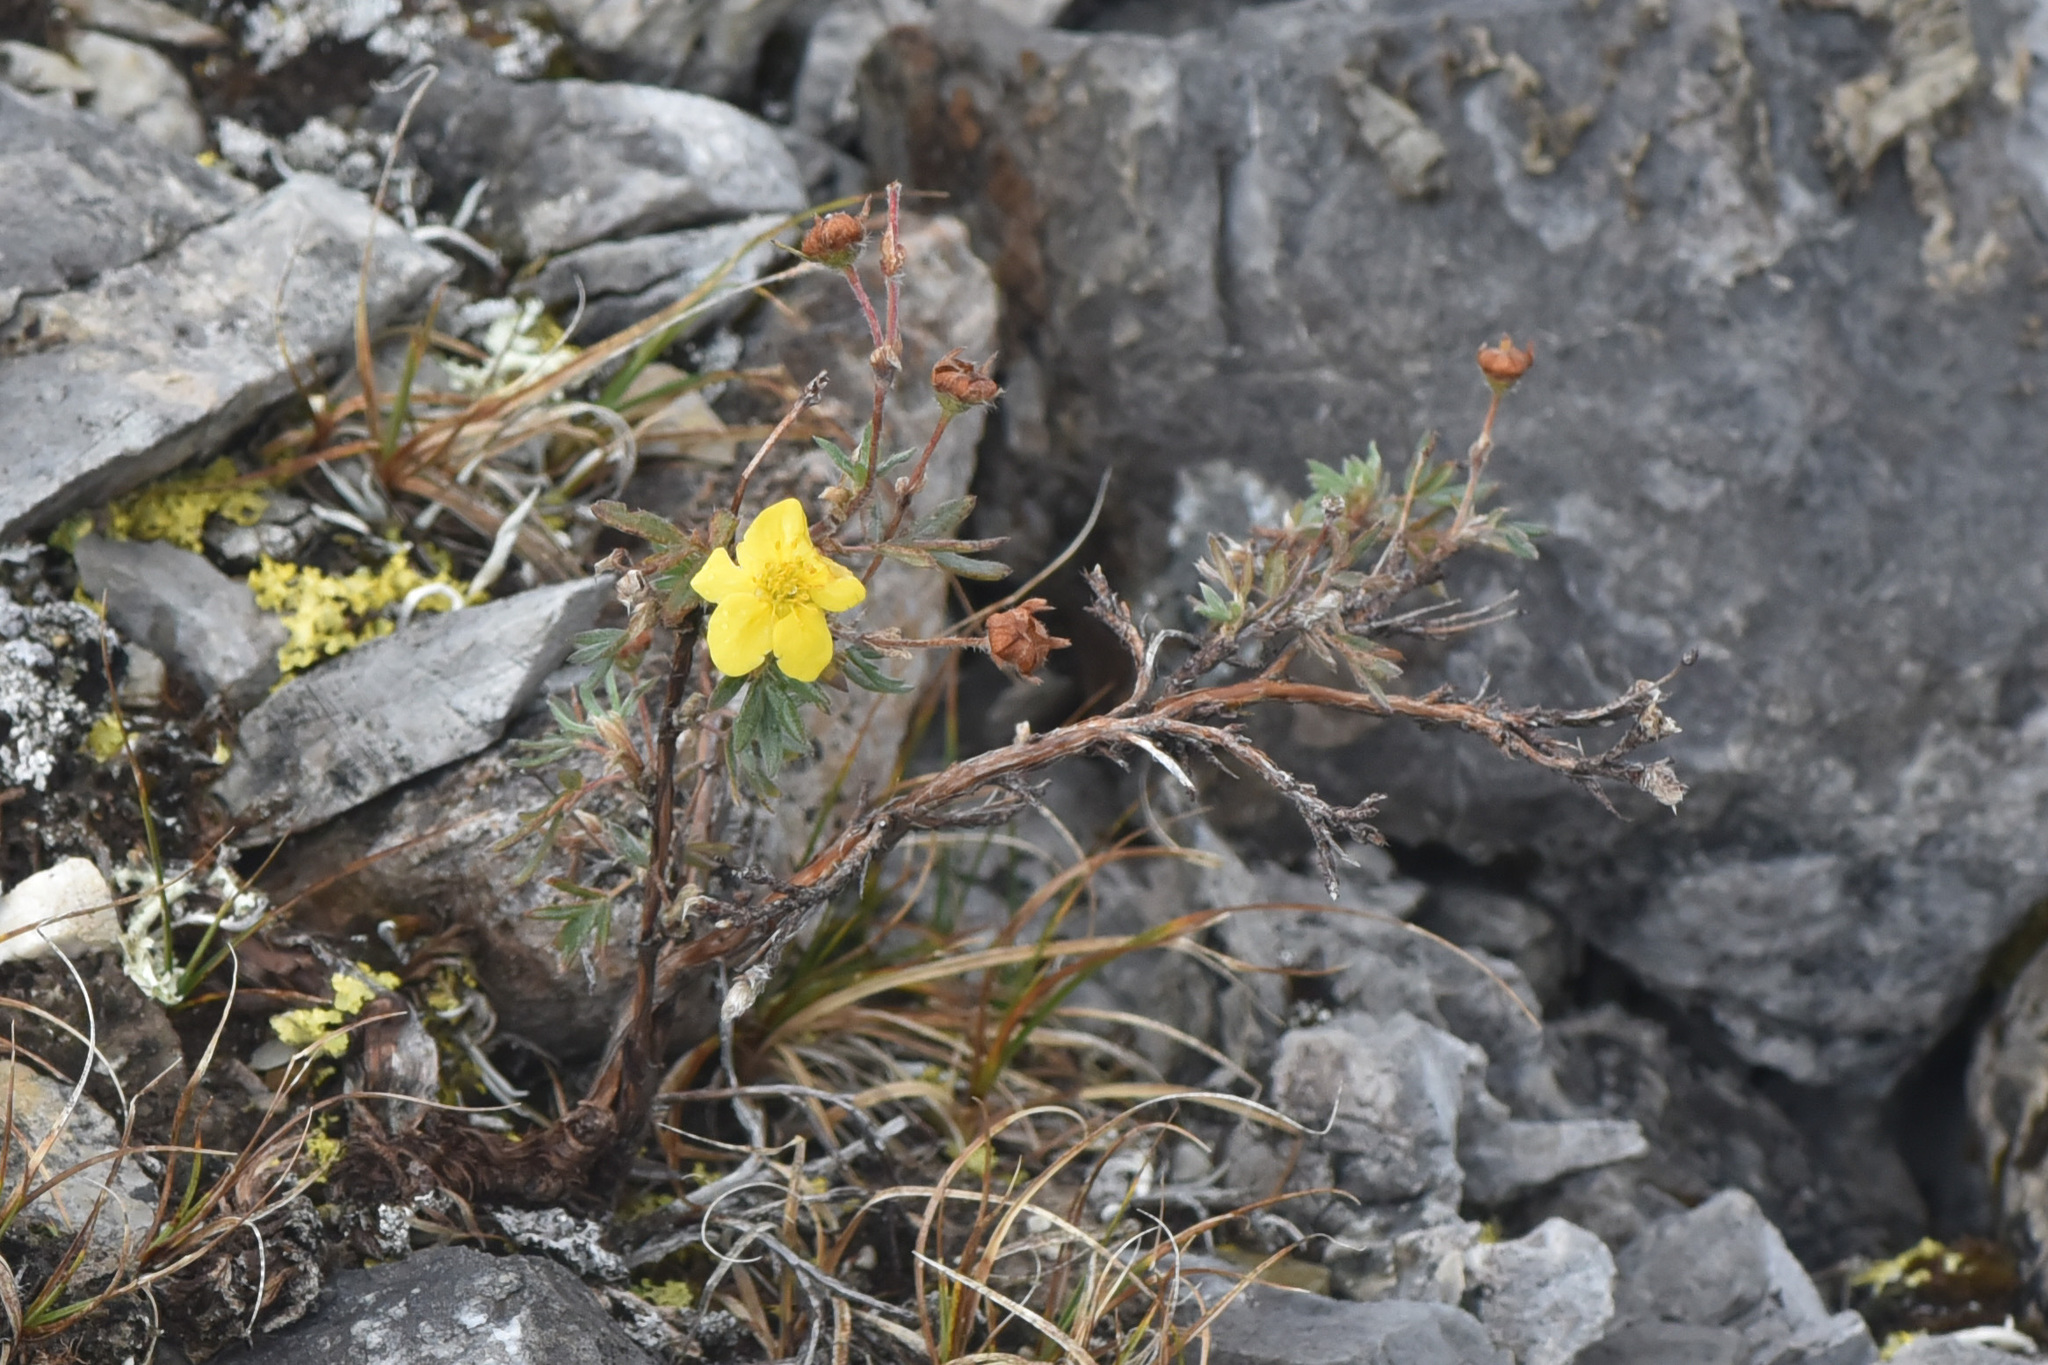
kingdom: Plantae
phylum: Tracheophyta
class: Magnoliopsida
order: Rosales
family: Rosaceae
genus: Dasiphora
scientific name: Dasiphora fruticosa
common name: Shrubby cinquefoil
